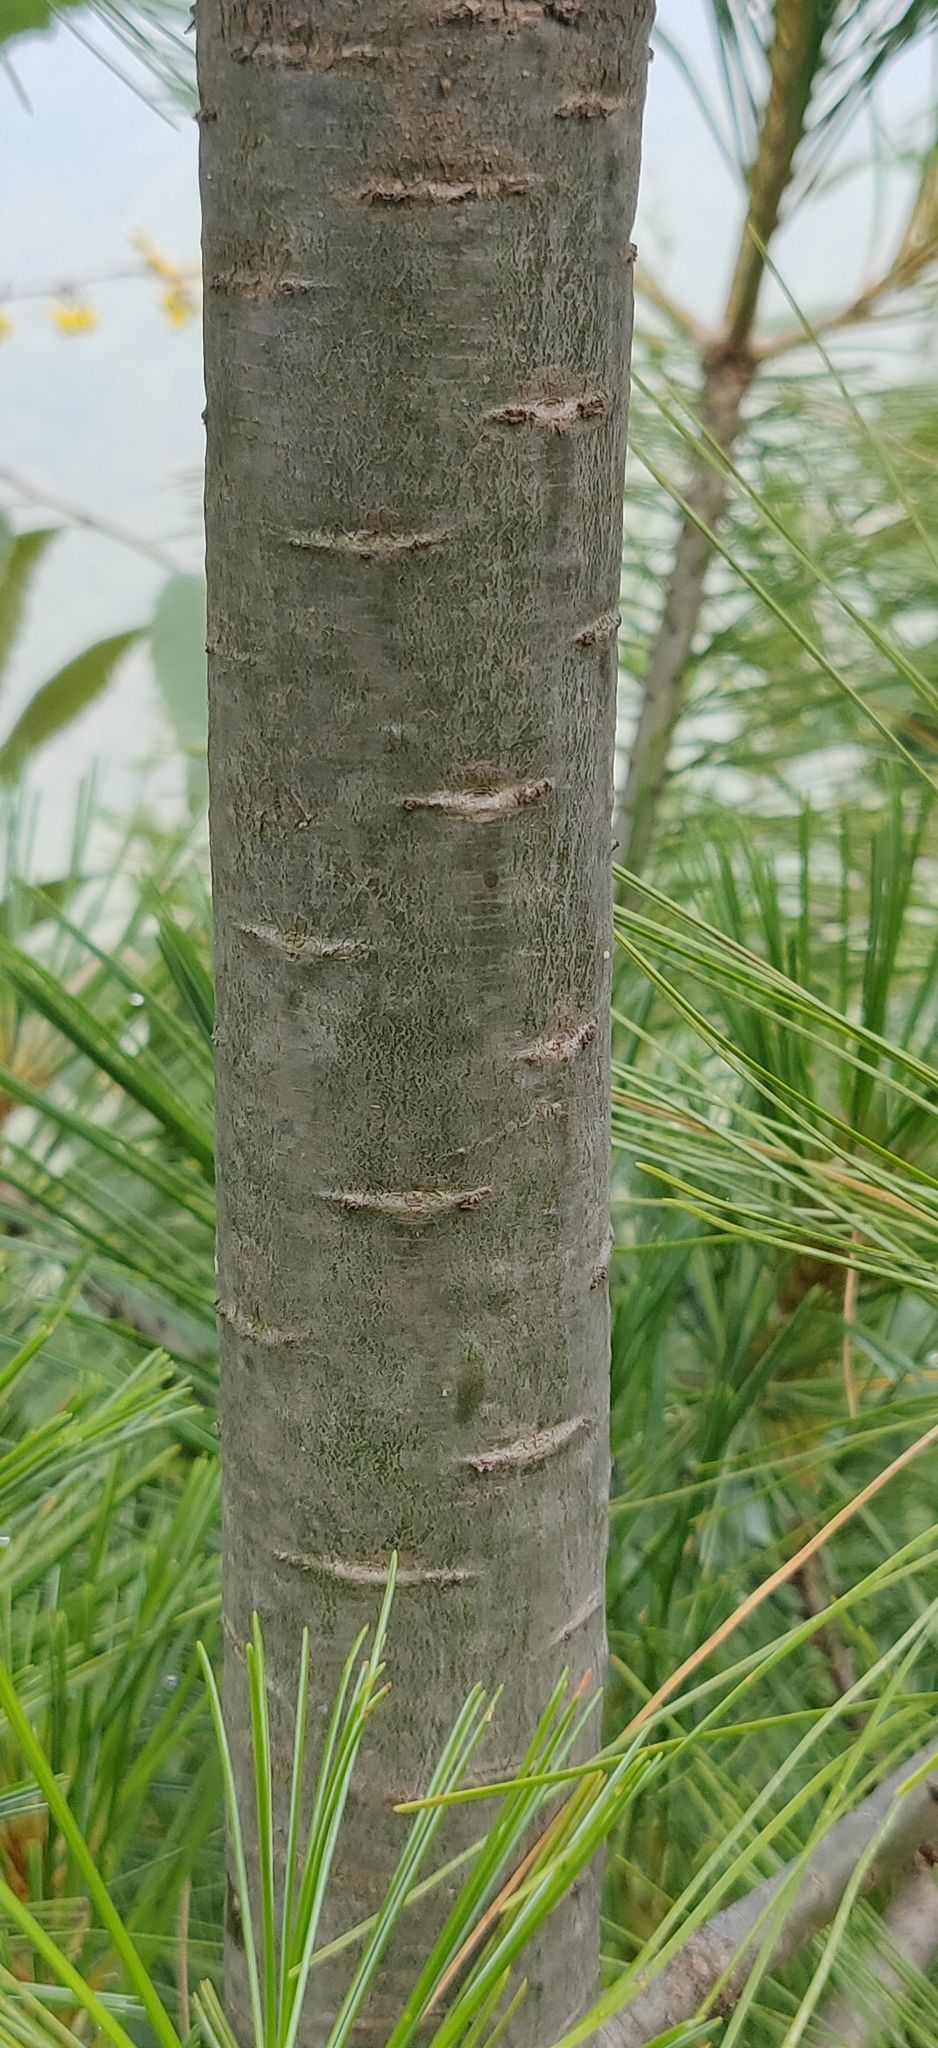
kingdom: Plantae
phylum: Tracheophyta
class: Pinopsida
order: Pinales
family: Pinaceae
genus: Pinus
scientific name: Pinus wallichiana
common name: Bhutan pine
